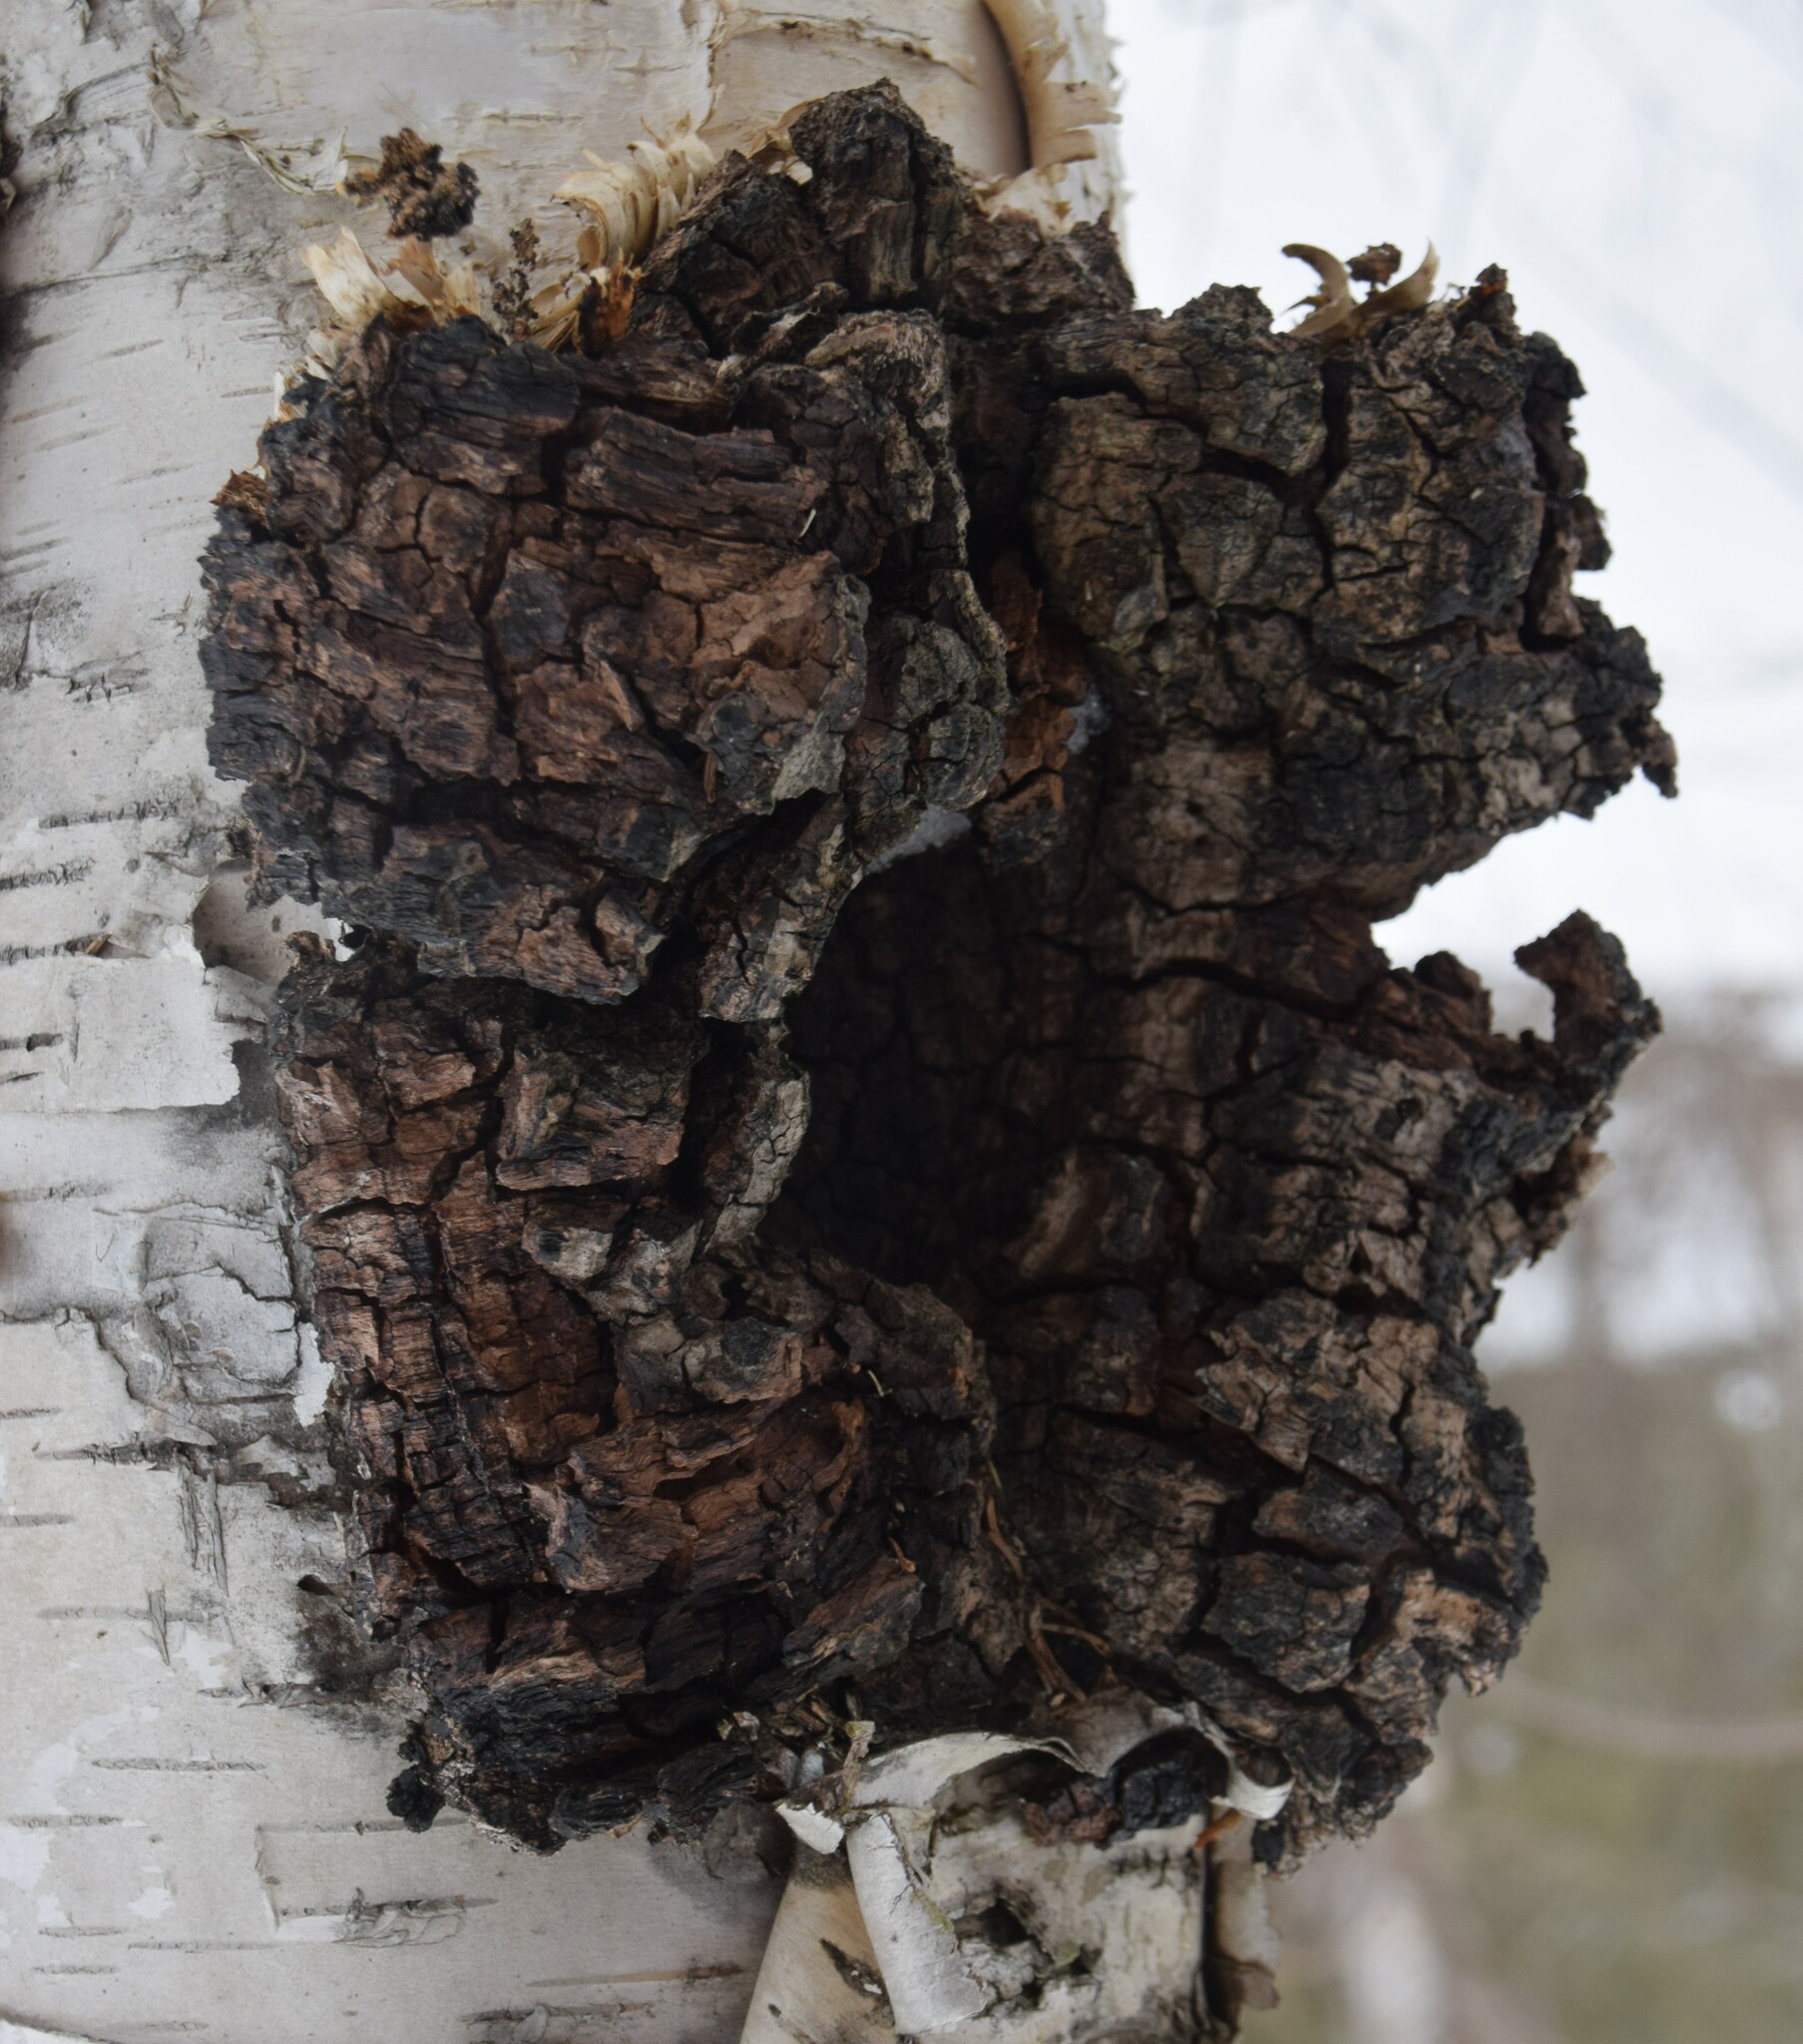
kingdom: Fungi
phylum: Basidiomycota
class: Agaricomycetes
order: Hymenochaetales
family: Hymenochaetaceae
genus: Inonotus
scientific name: Inonotus obliquus
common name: Chaga
